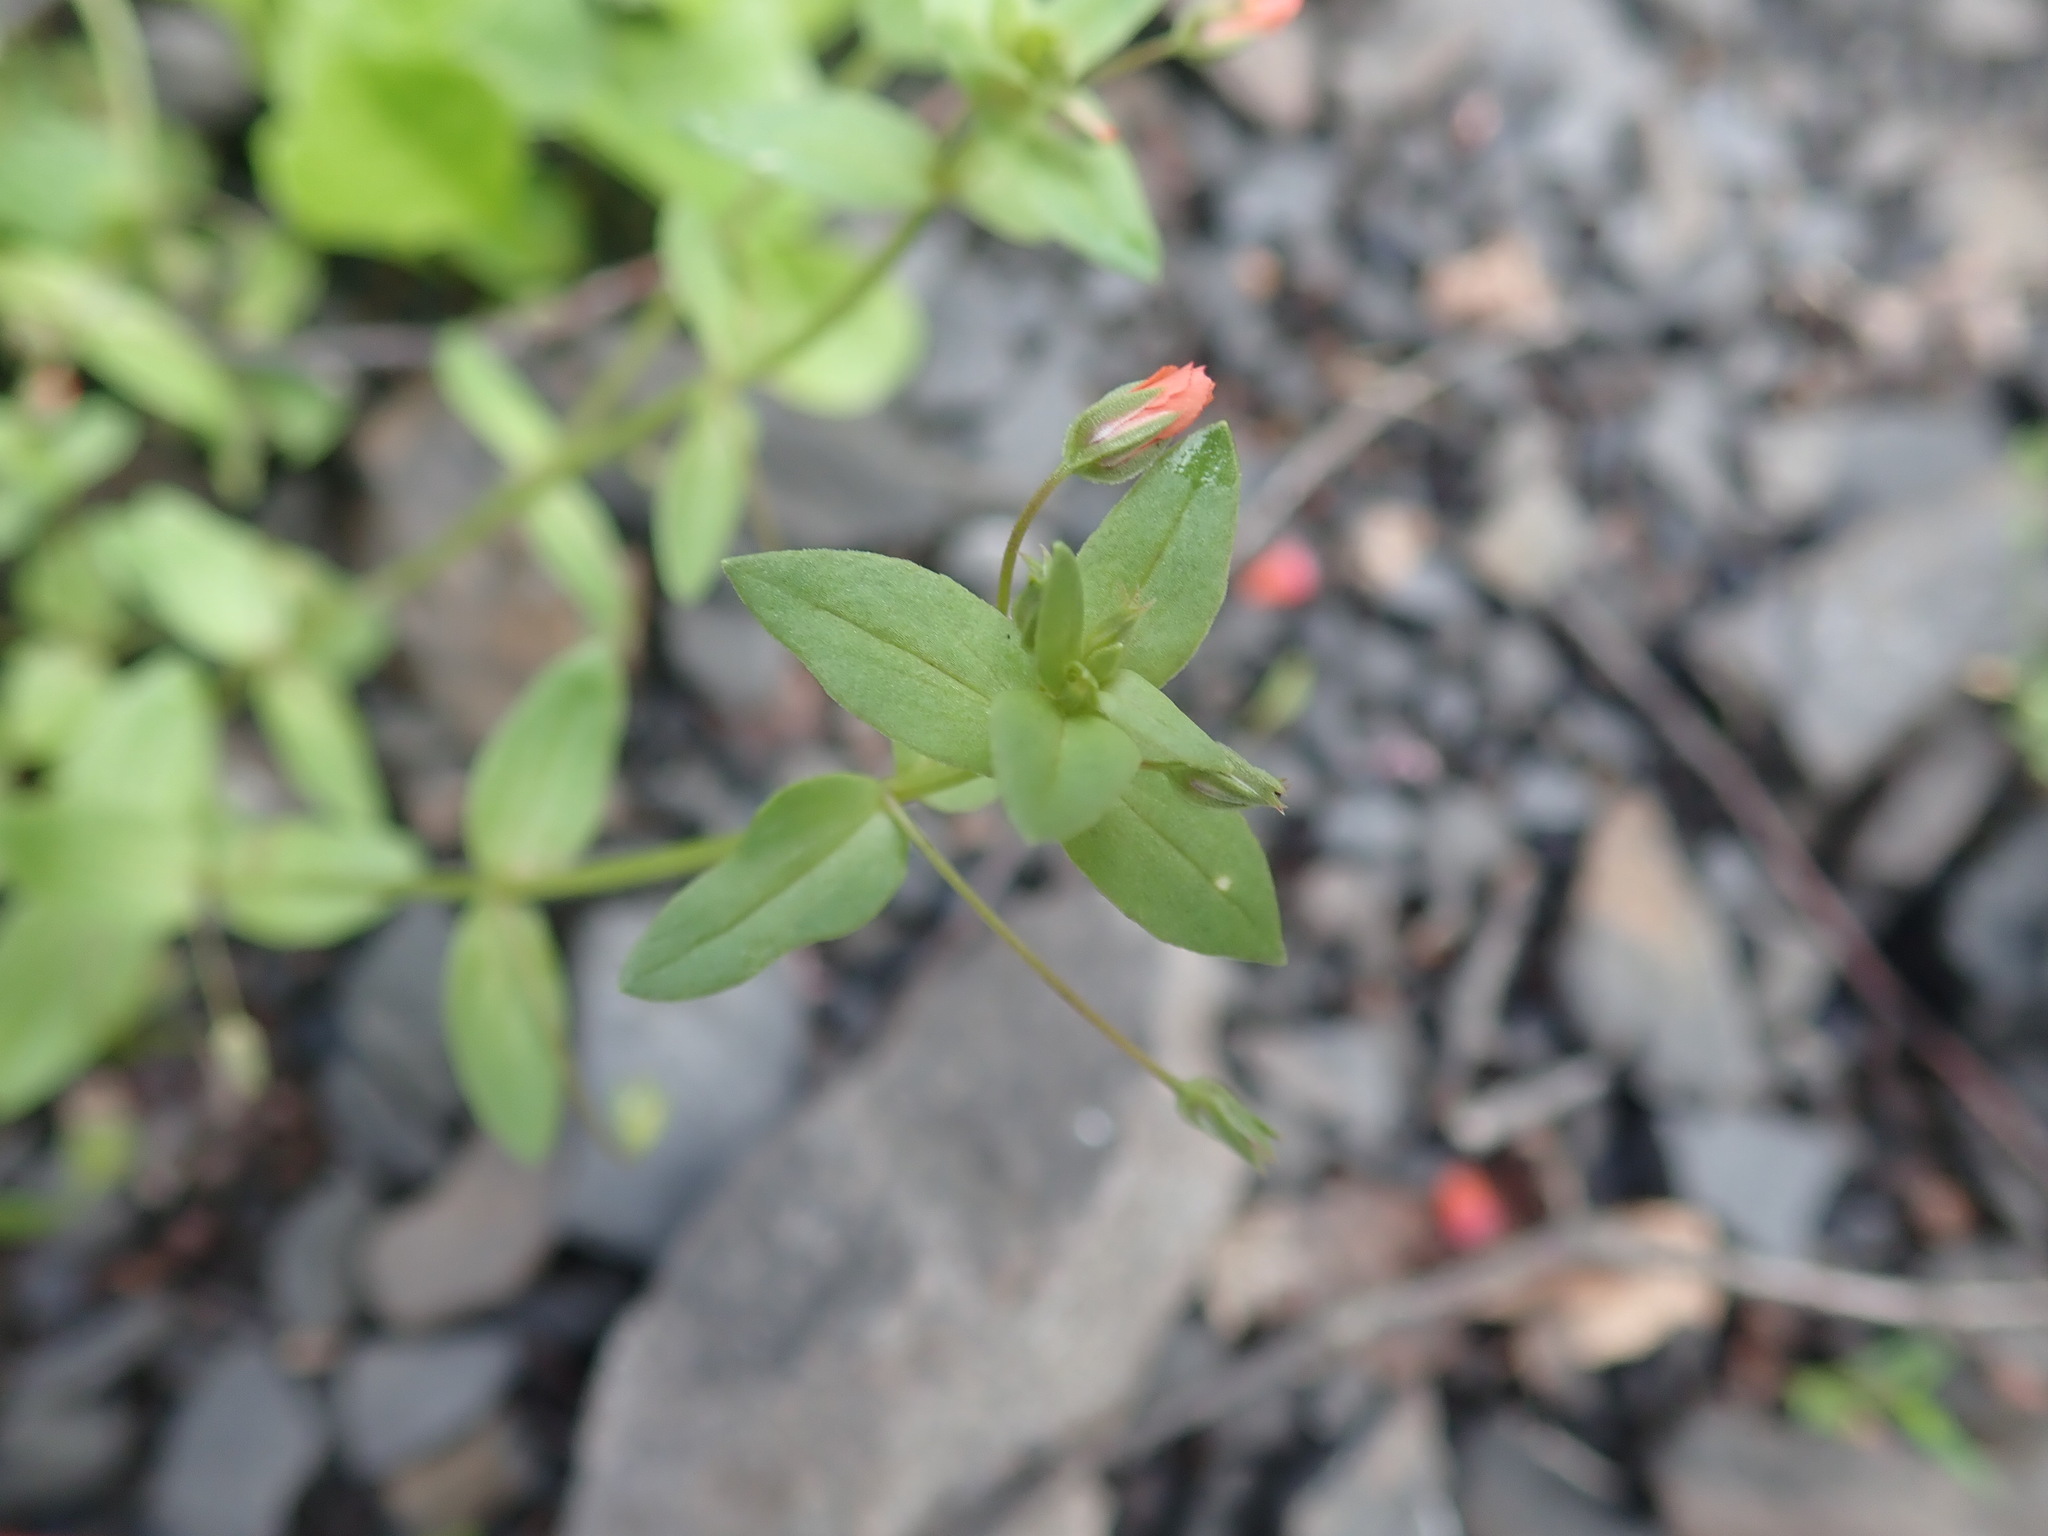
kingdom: Plantae
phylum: Tracheophyta
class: Magnoliopsida
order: Ericales
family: Primulaceae
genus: Lysimachia
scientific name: Lysimachia arvensis
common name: Scarlet pimpernel
